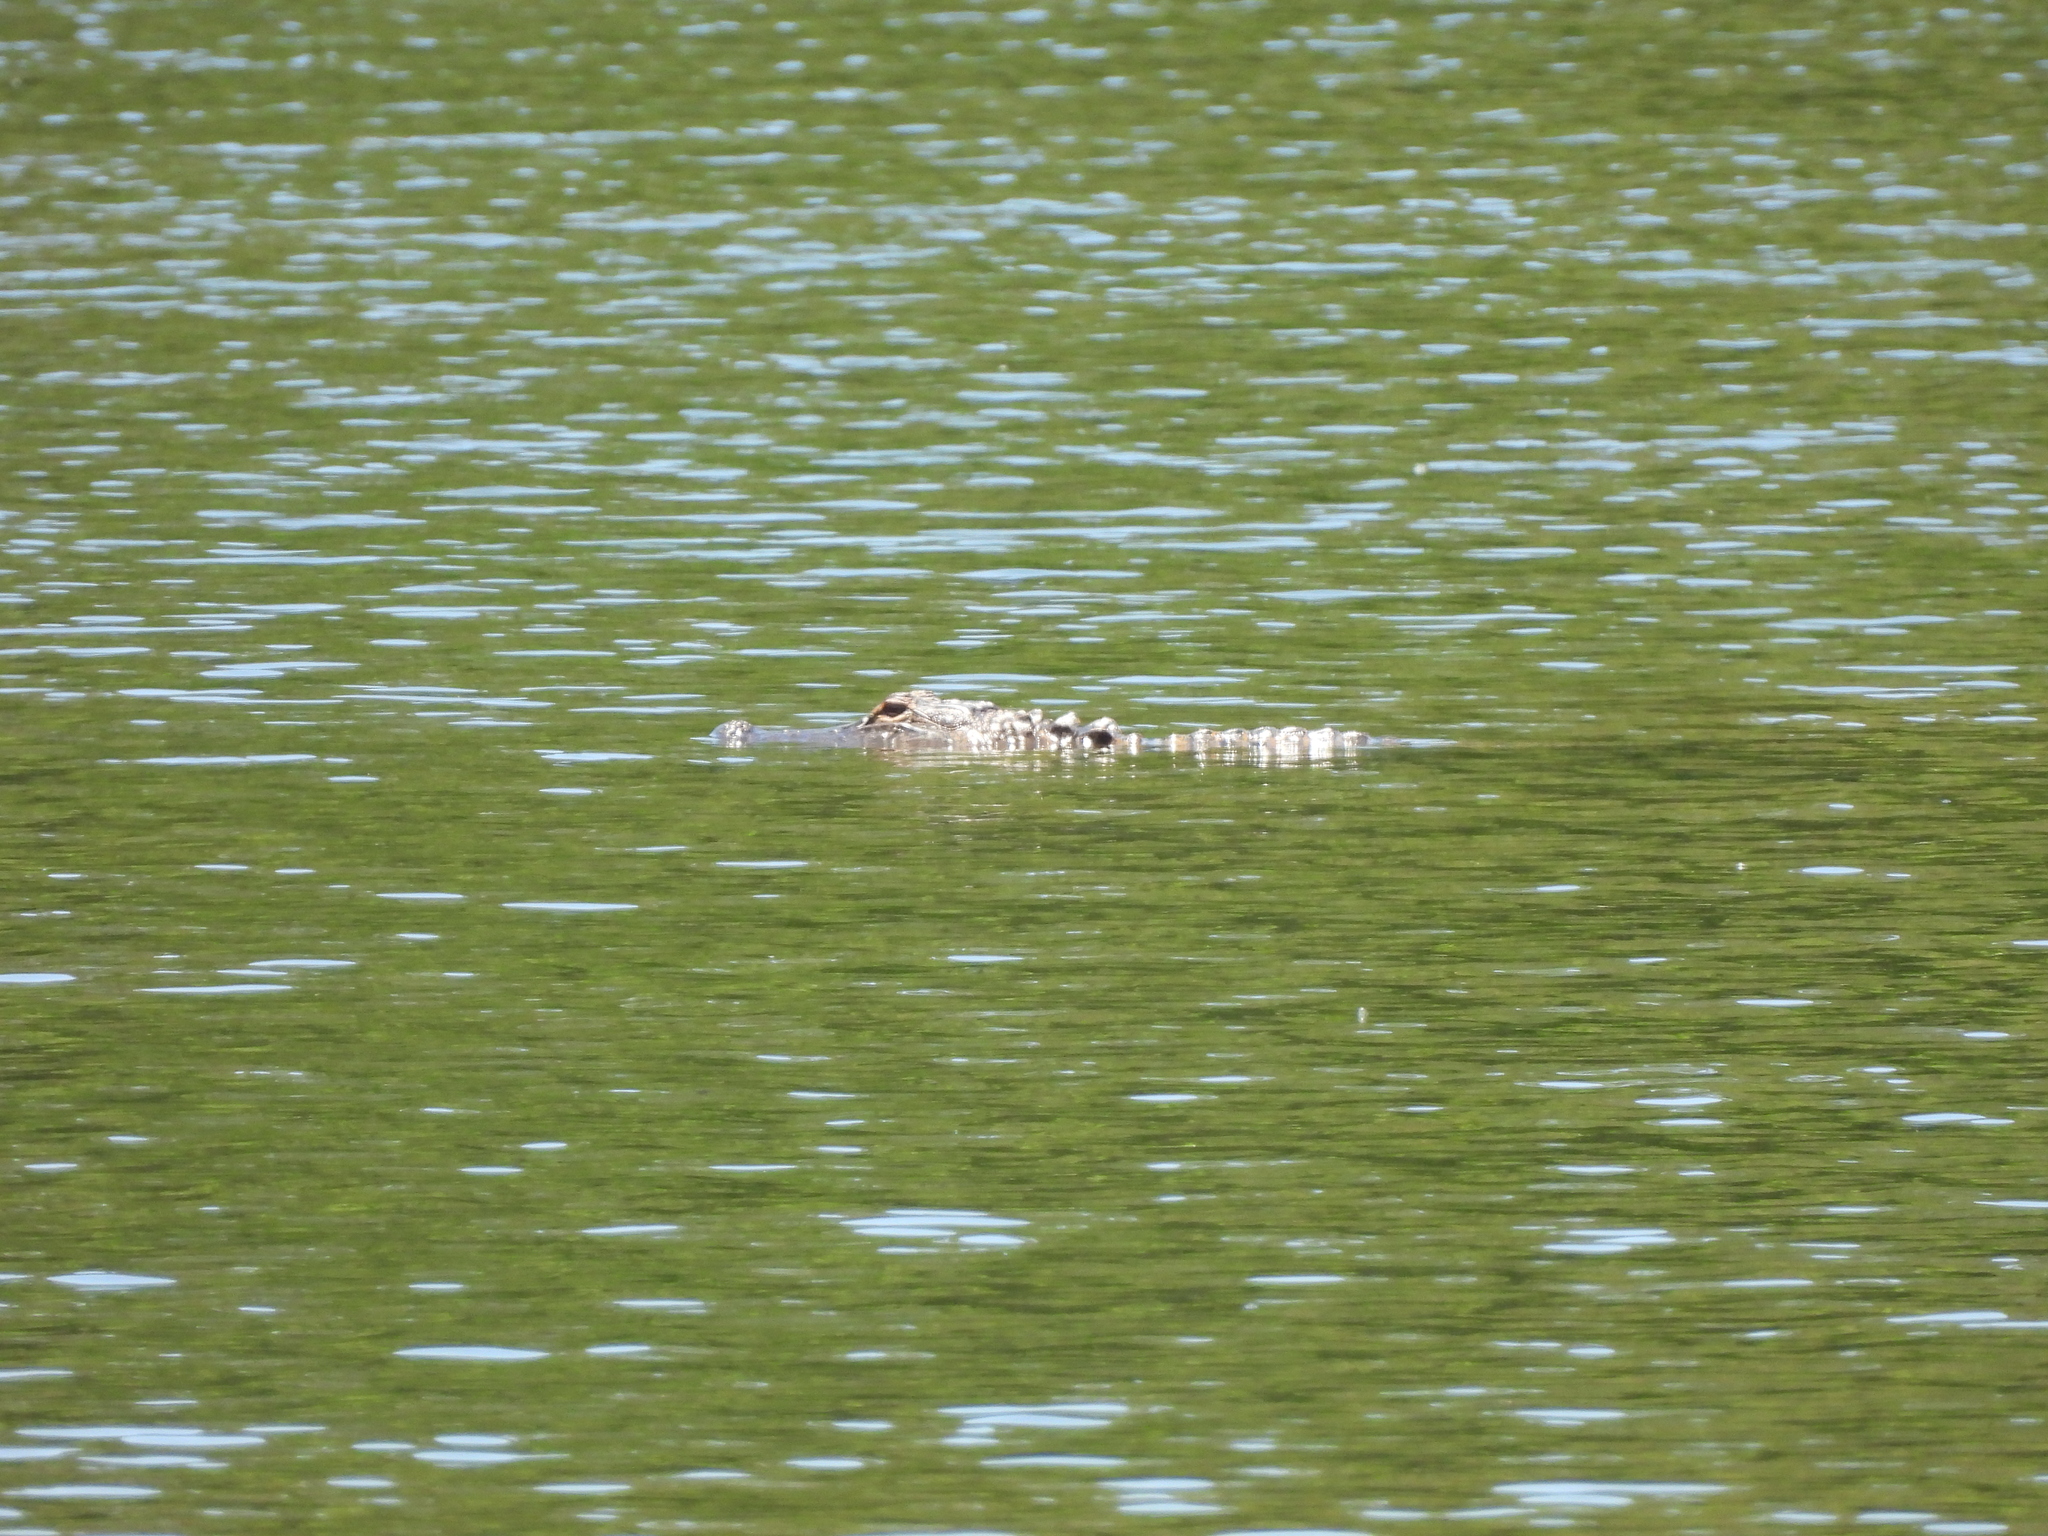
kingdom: Animalia
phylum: Chordata
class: Crocodylia
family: Alligatoridae
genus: Alligator
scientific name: Alligator mississippiensis
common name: American alligator
